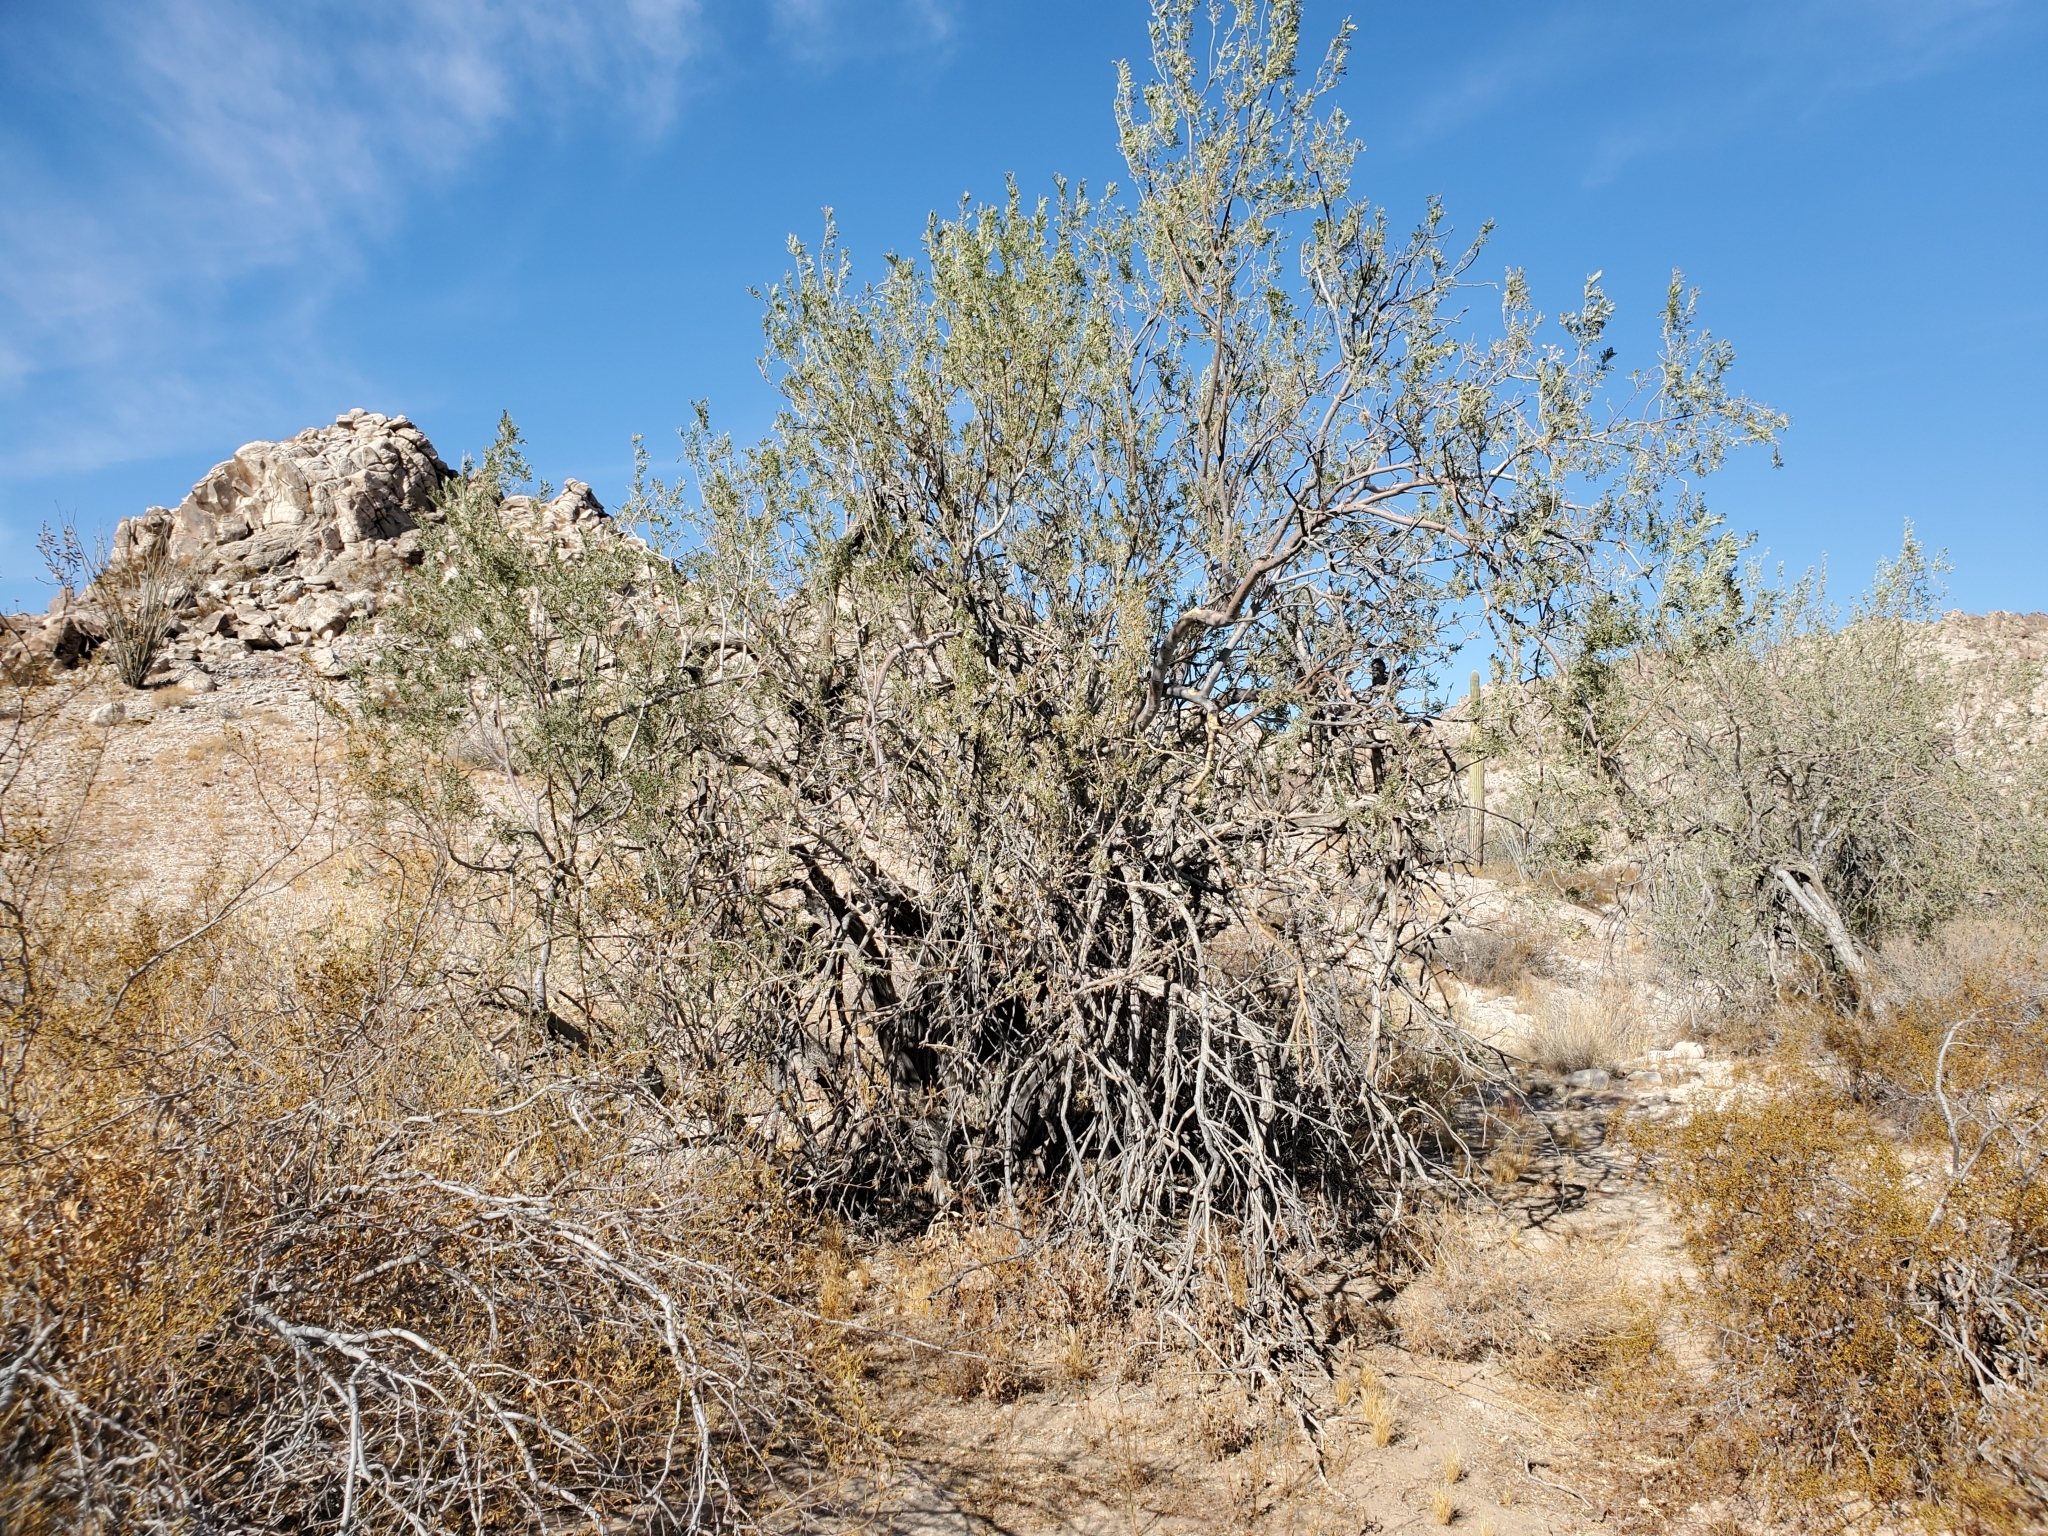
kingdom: Plantae
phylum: Tracheophyta
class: Magnoliopsida
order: Fabales
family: Fabaceae
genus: Olneya
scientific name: Olneya tesota
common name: Desert ironwood
